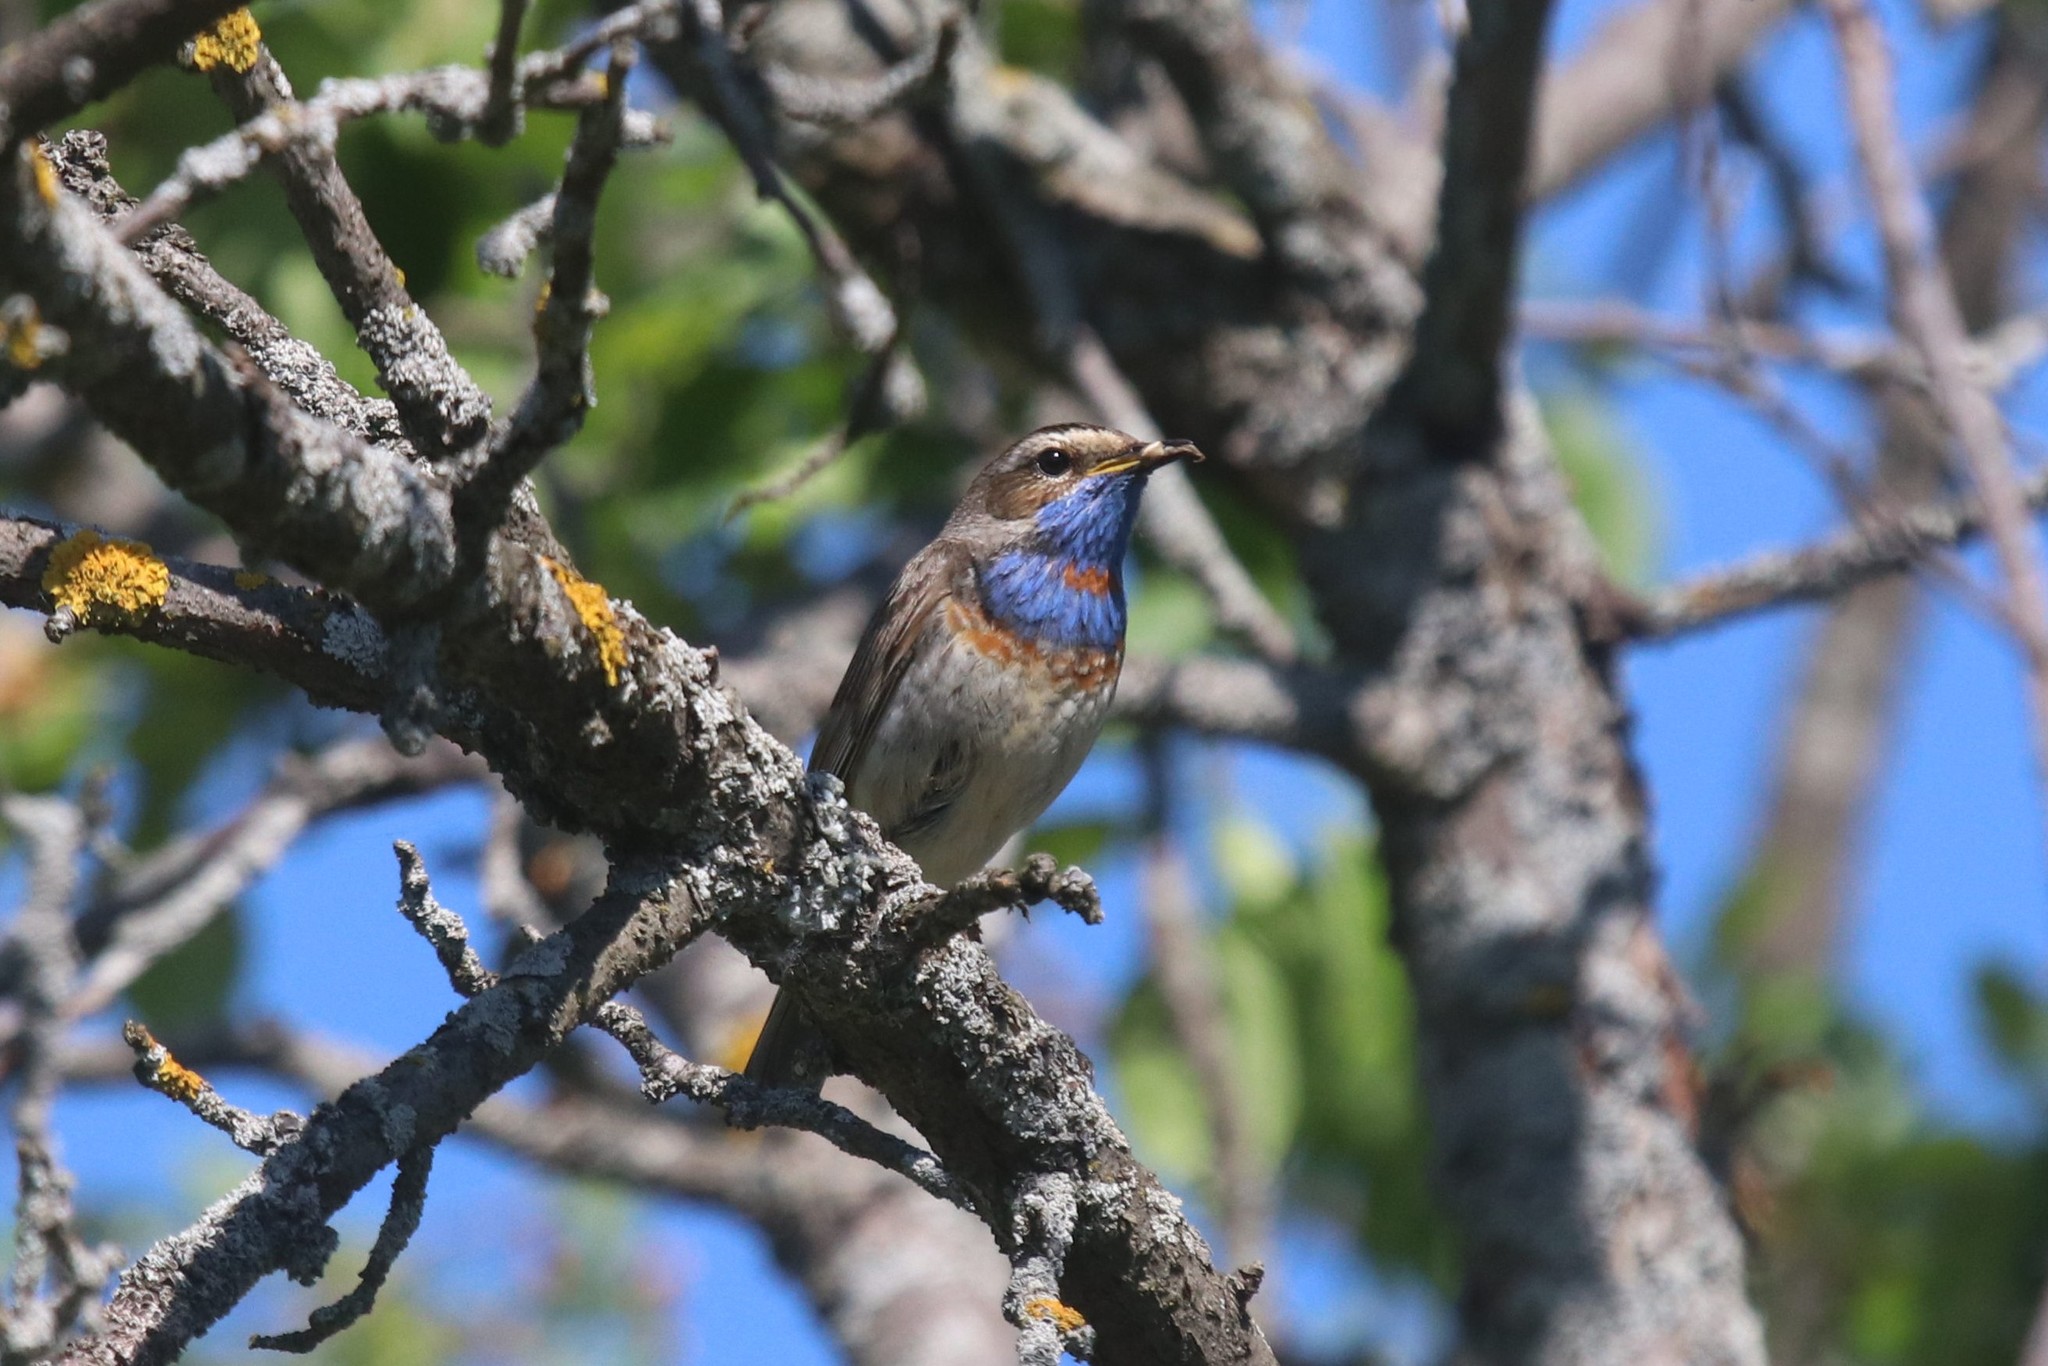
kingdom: Animalia
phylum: Chordata
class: Aves
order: Passeriformes
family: Muscicapidae
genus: Luscinia
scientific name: Luscinia svecica
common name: Bluethroat
